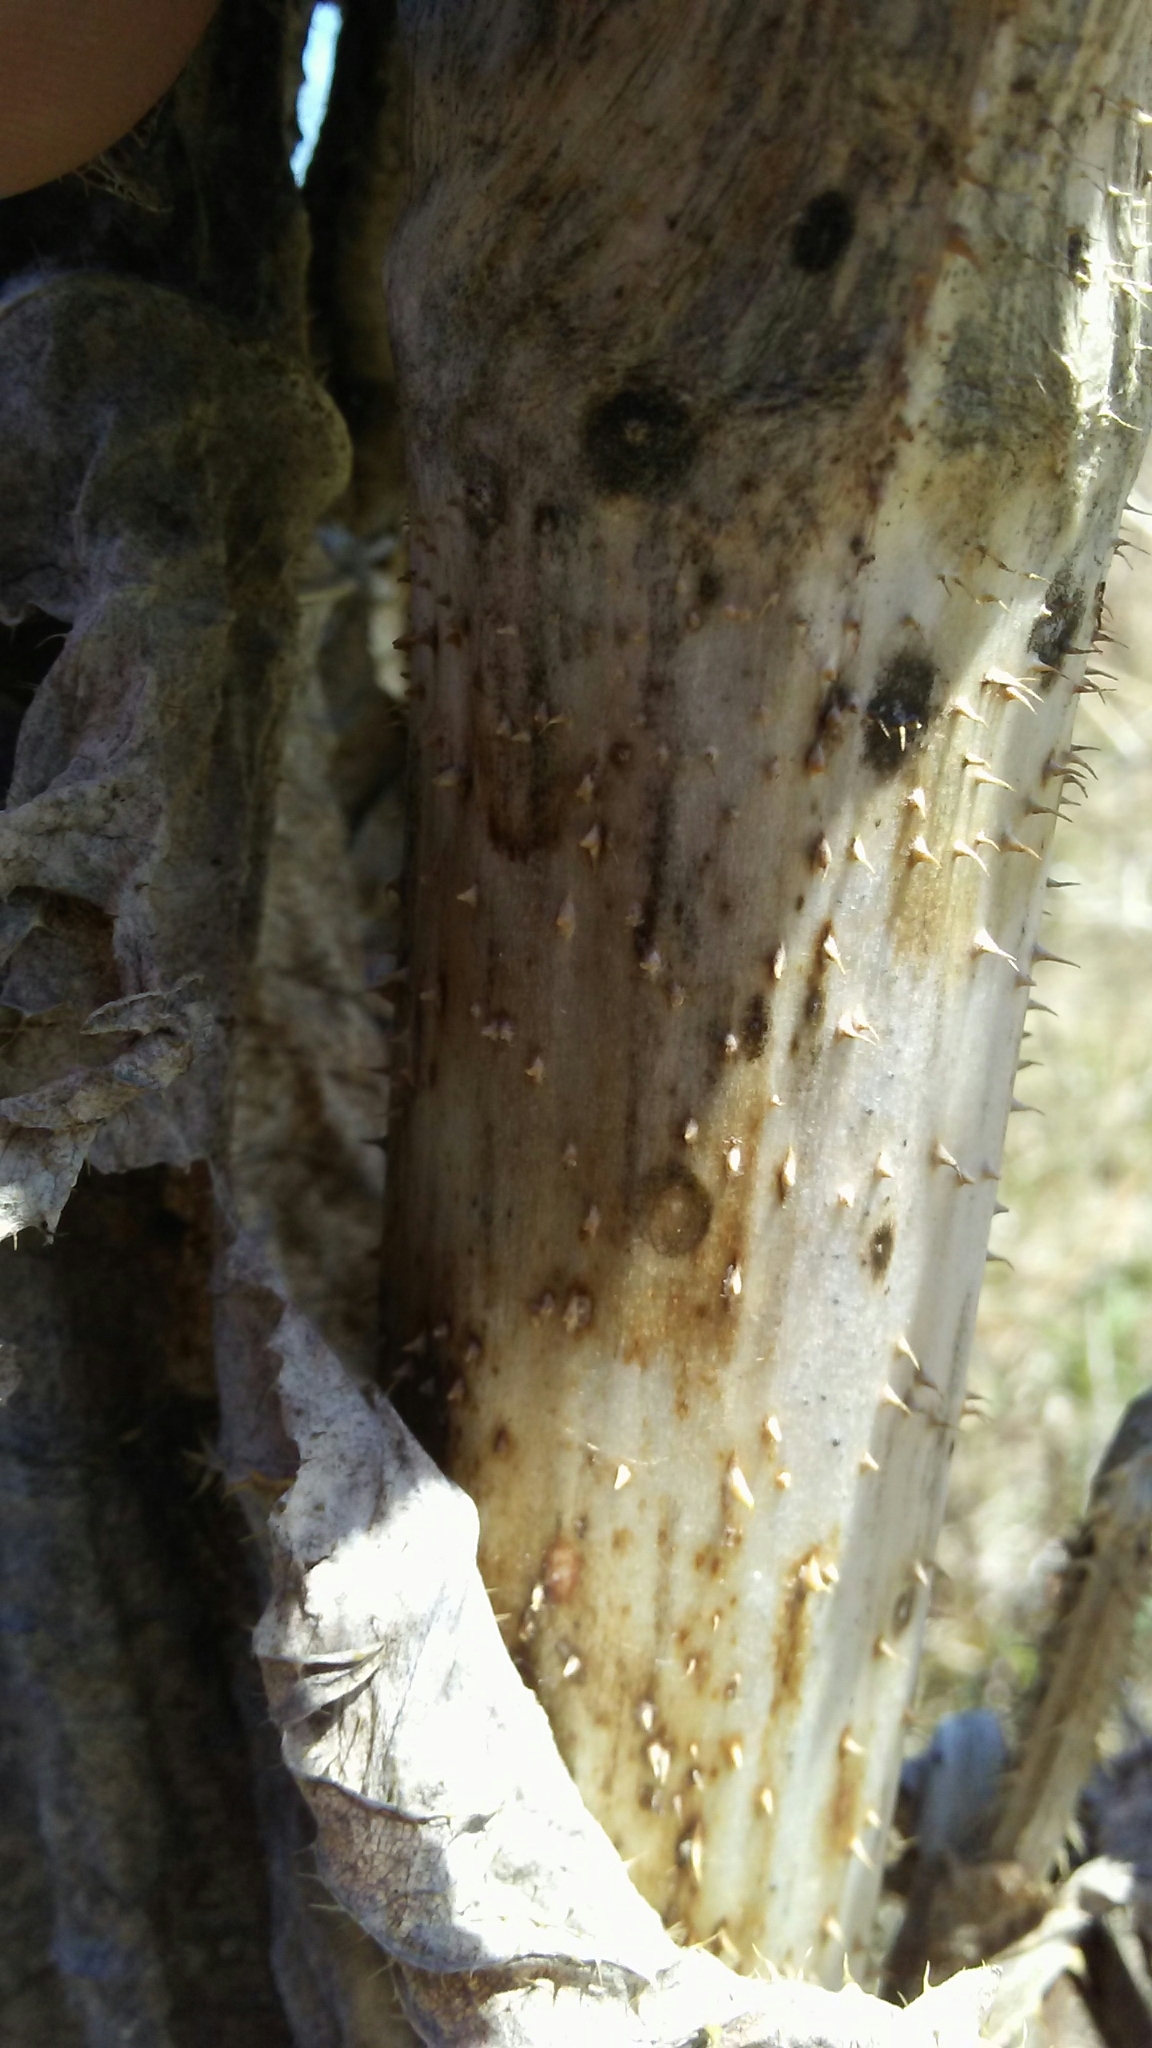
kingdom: Plantae
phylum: Tracheophyta
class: Magnoliopsida
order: Dipsacales
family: Caprifoliaceae
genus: Dipsacus
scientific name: Dipsacus laciniatus
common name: Cut-leaved teasel
